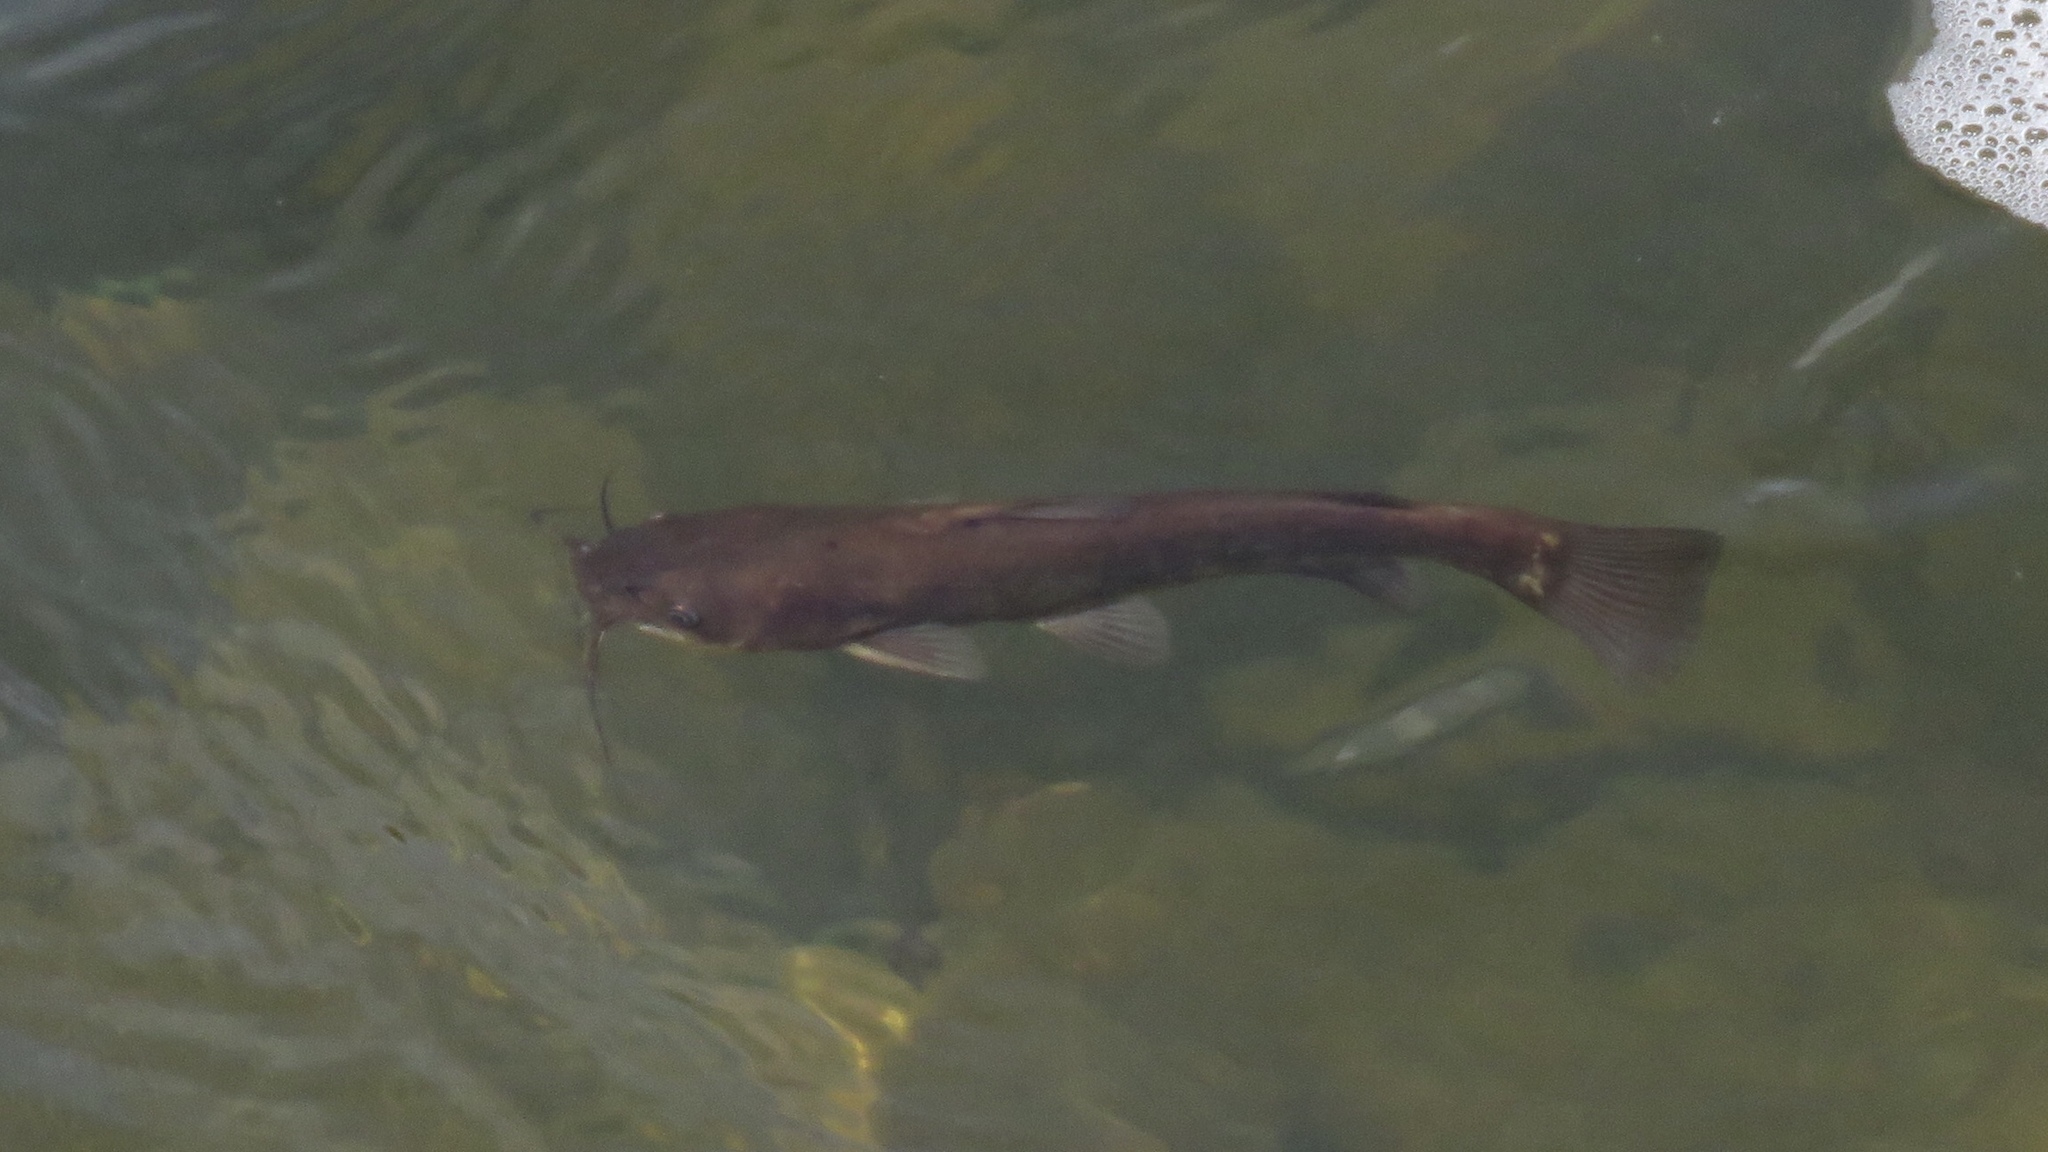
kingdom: Animalia
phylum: Chordata
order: Siluriformes
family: Ictaluridae
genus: Ameiurus
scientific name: Ameiurus nebulosus
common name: Brown bullhead
